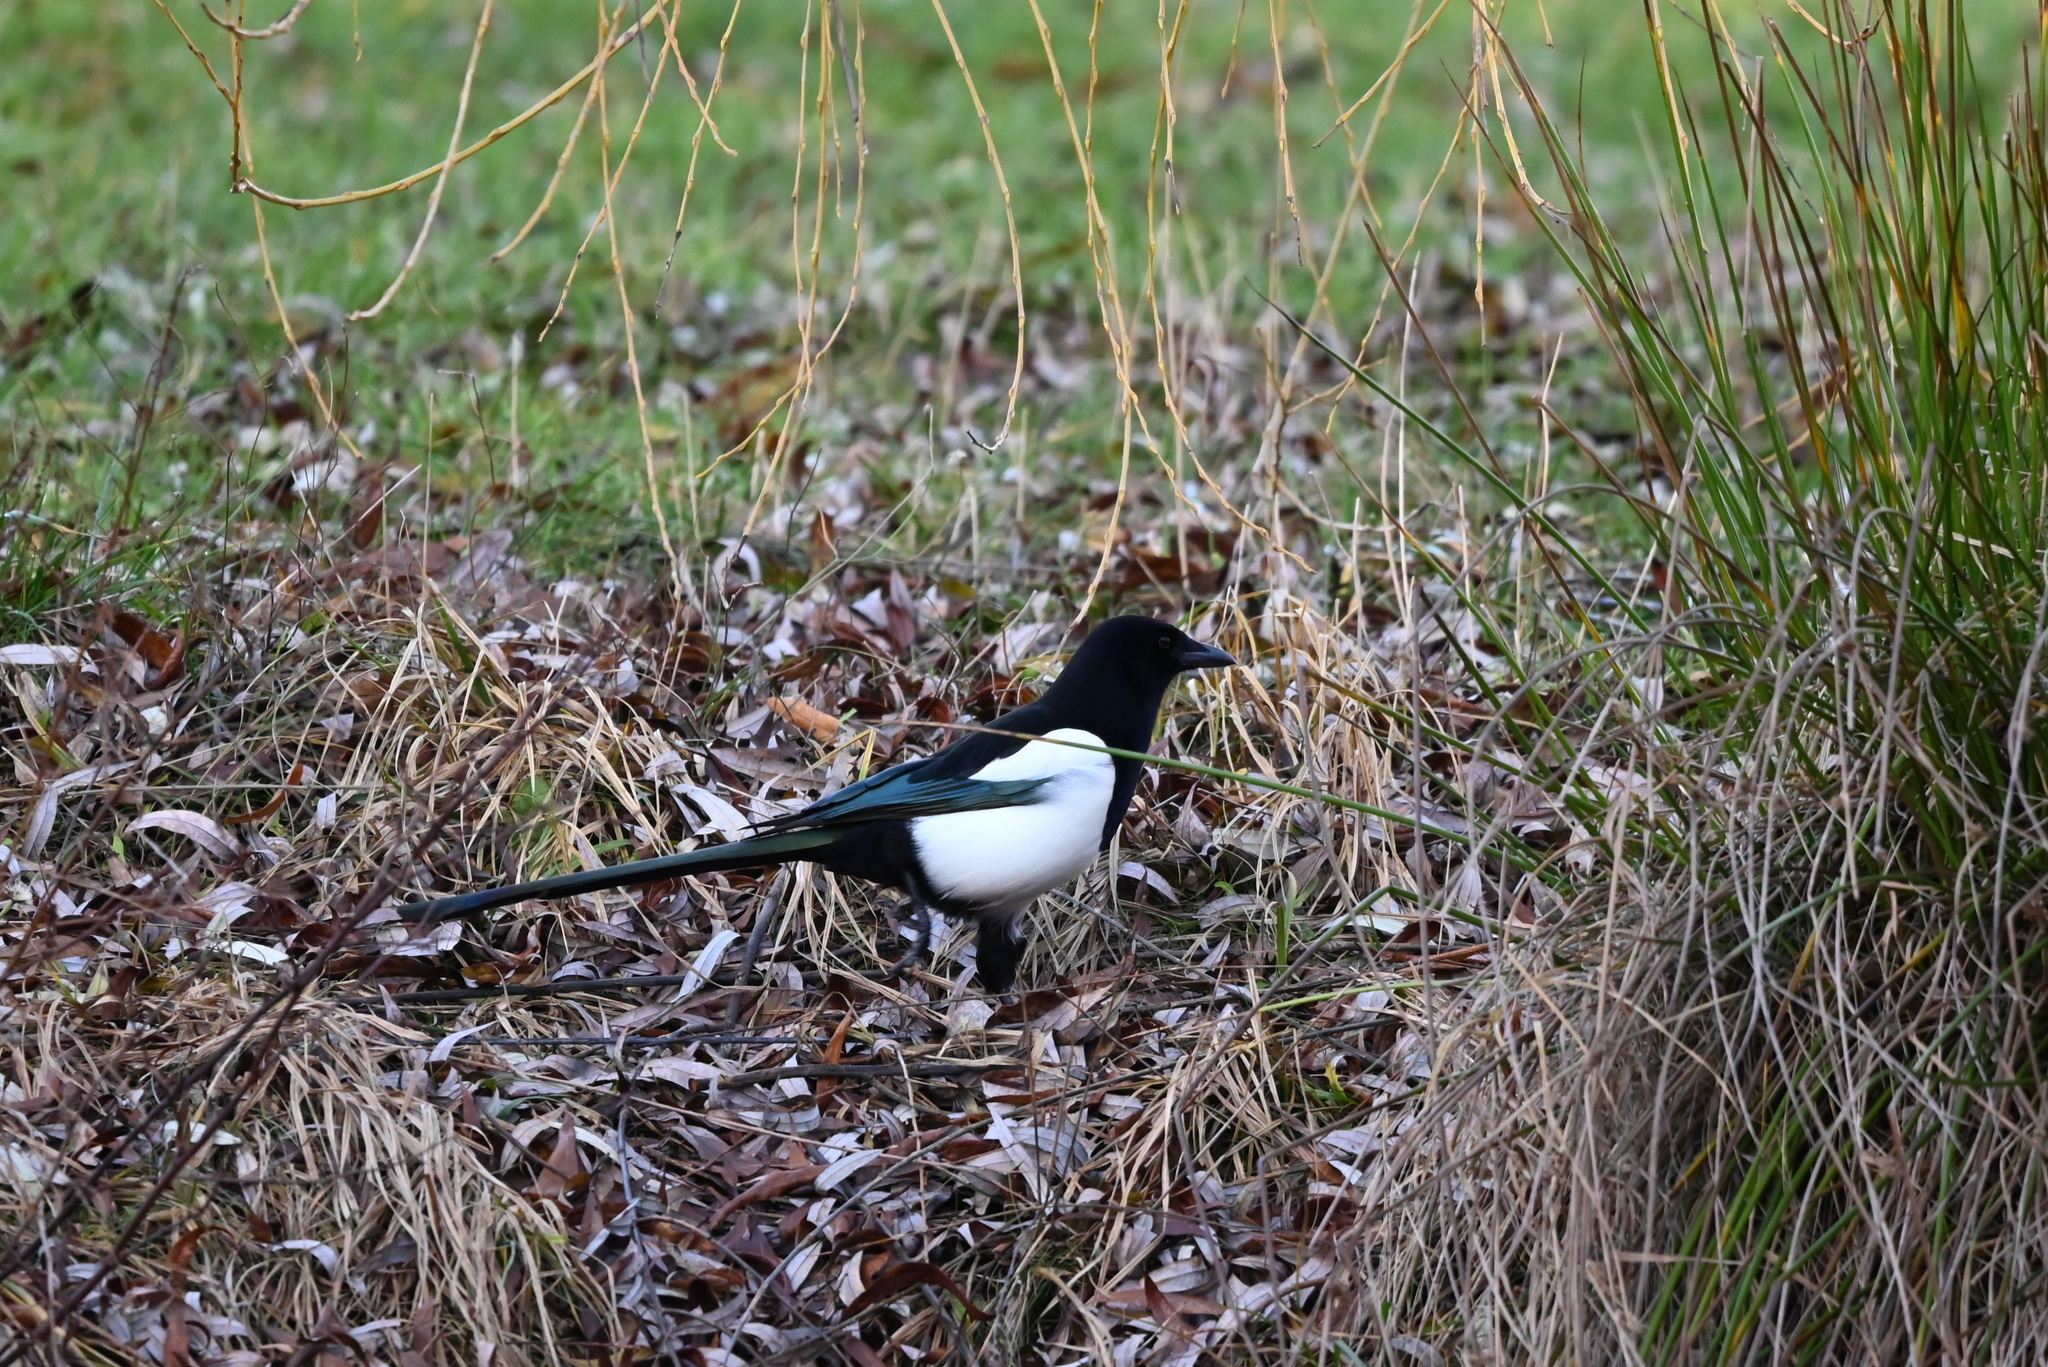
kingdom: Animalia
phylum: Chordata
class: Aves
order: Passeriformes
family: Corvidae
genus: Pica
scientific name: Pica pica
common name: Eurasian magpie
